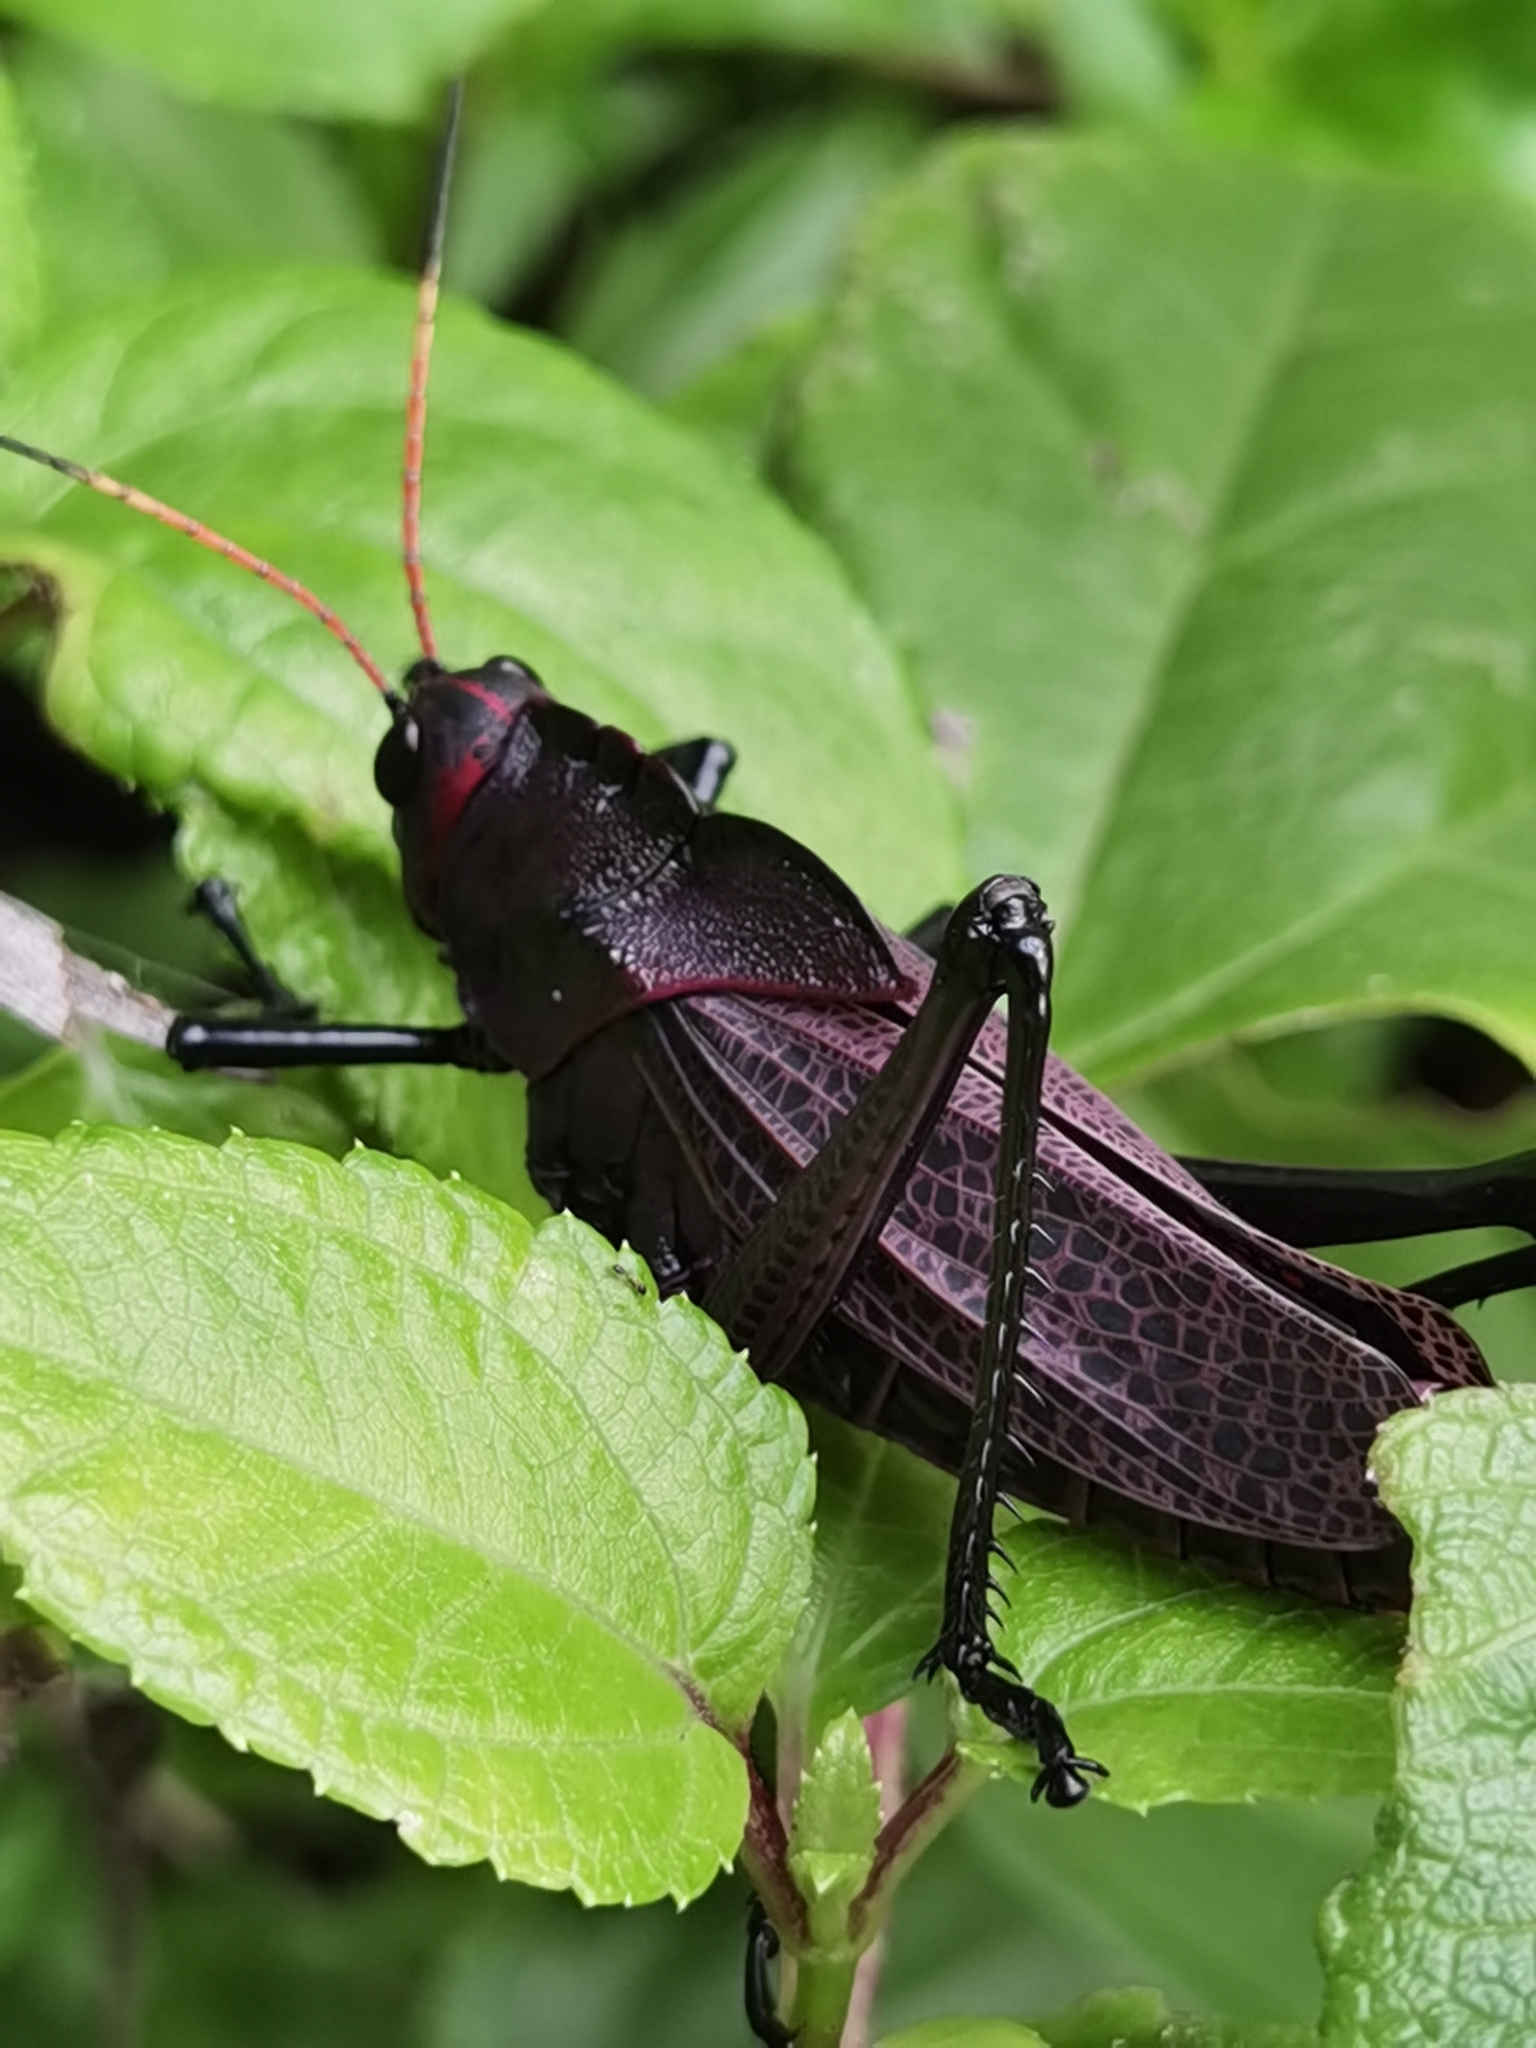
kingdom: Animalia
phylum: Arthropoda
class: Insecta
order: Orthoptera
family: Romaleidae
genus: Romalea
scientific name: Romalea
